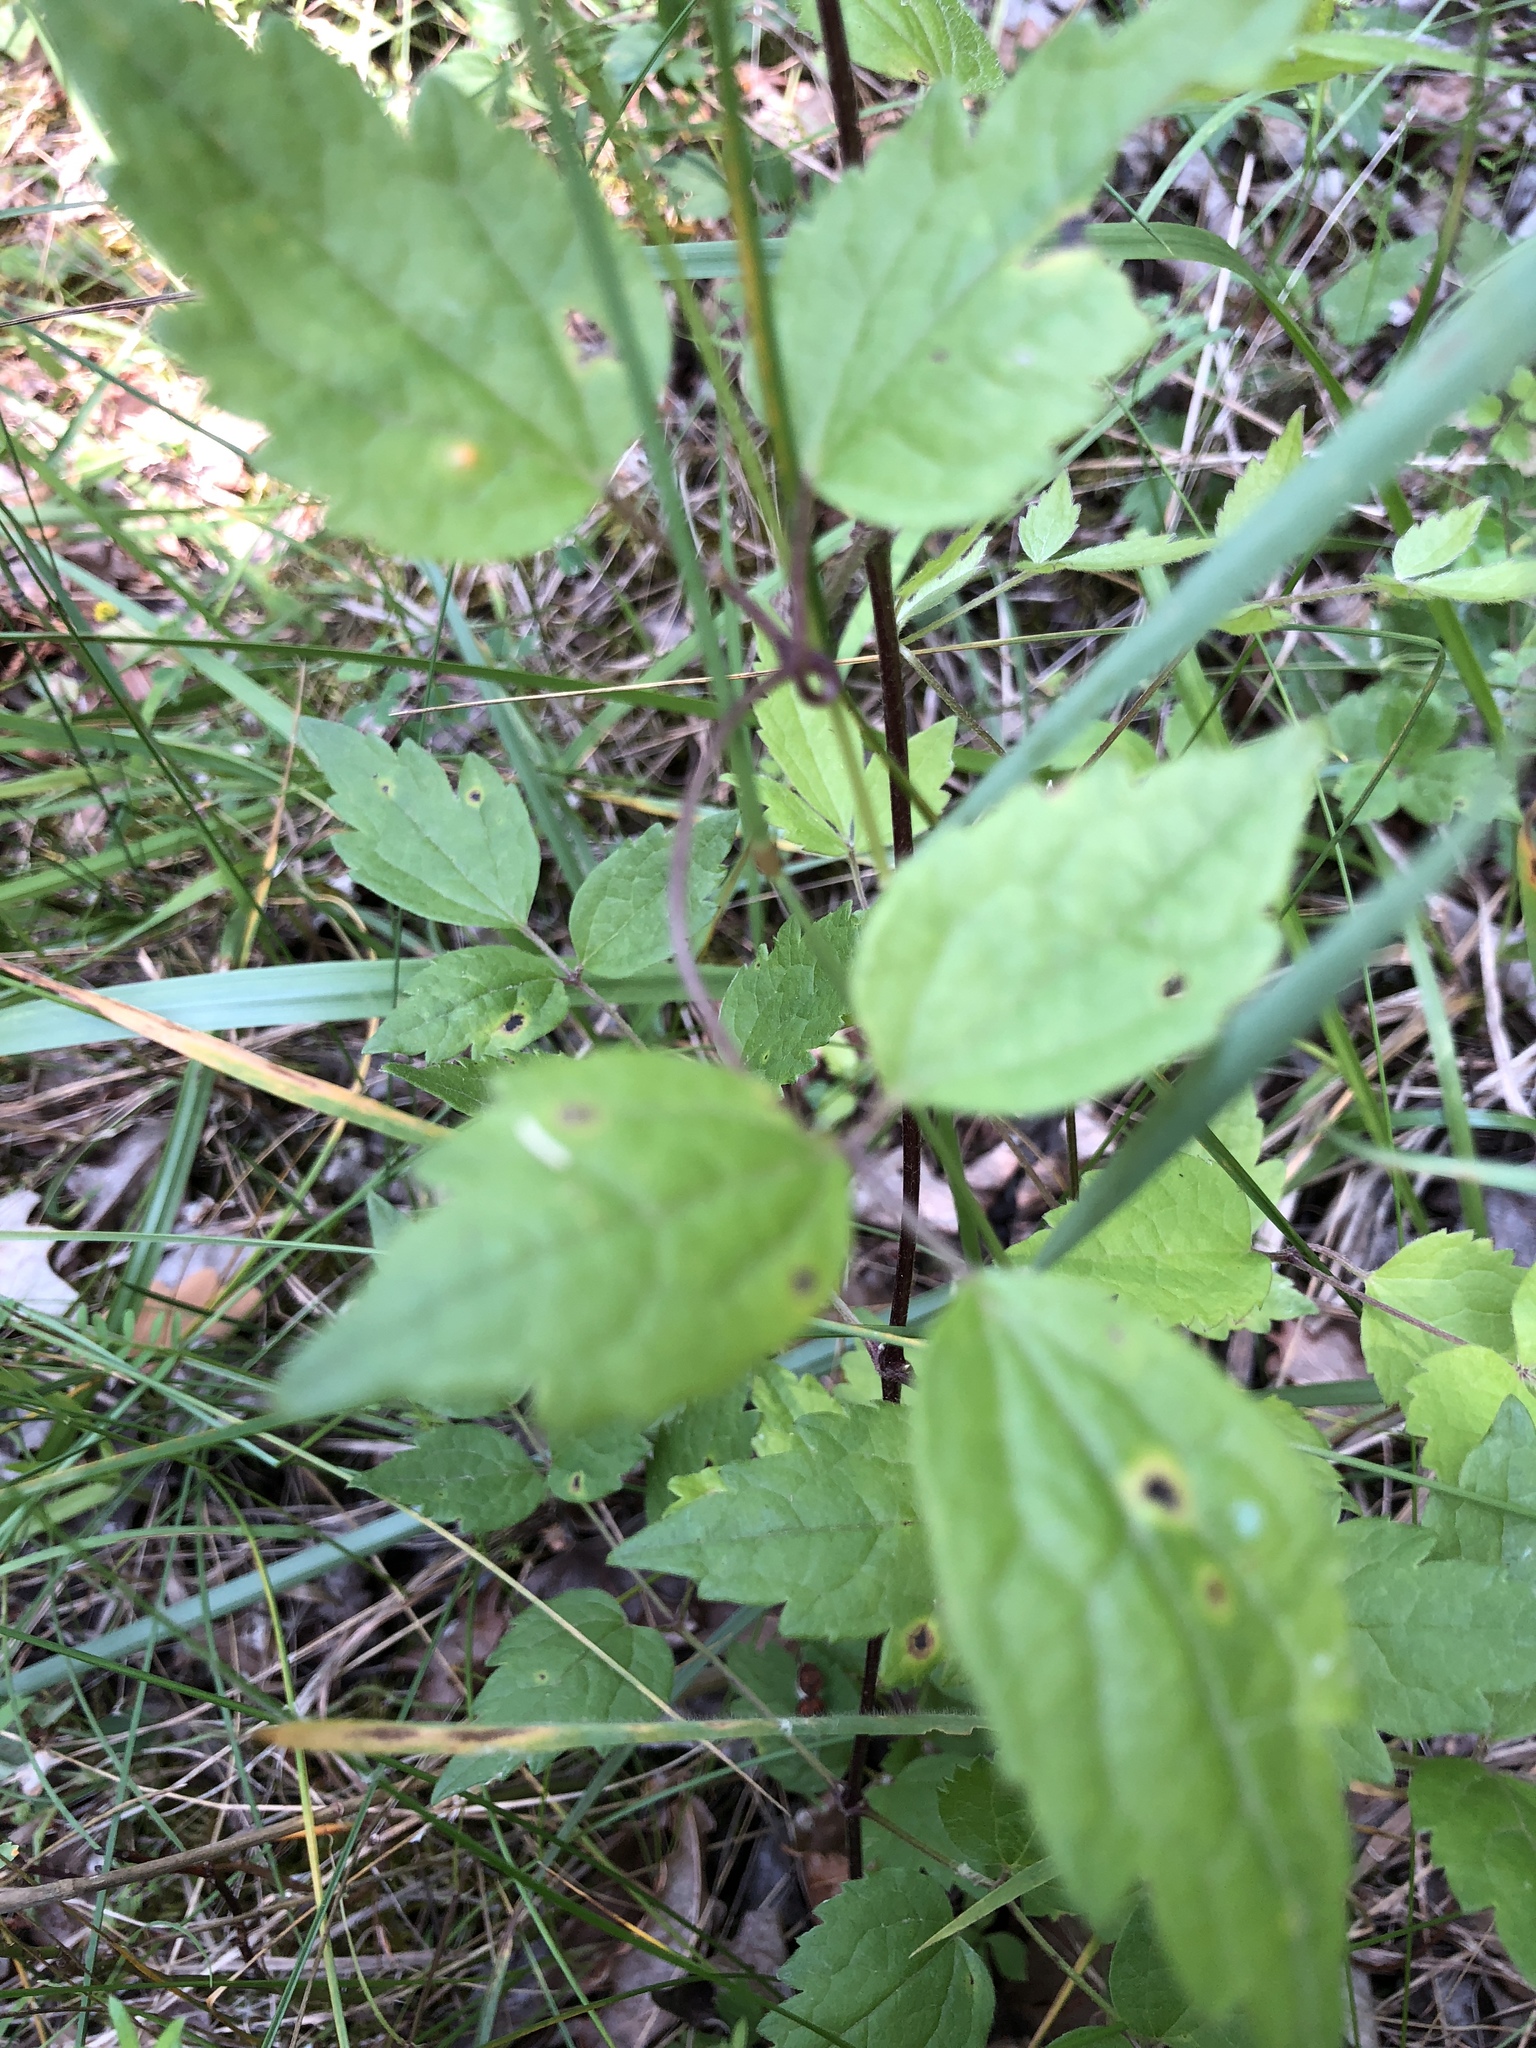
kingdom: Plantae
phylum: Tracheophyta
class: Magnoliopsida
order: Ranunculales
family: Ranunculaceae
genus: Clematis
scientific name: Clematis vitalba
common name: Evergreen clematis
